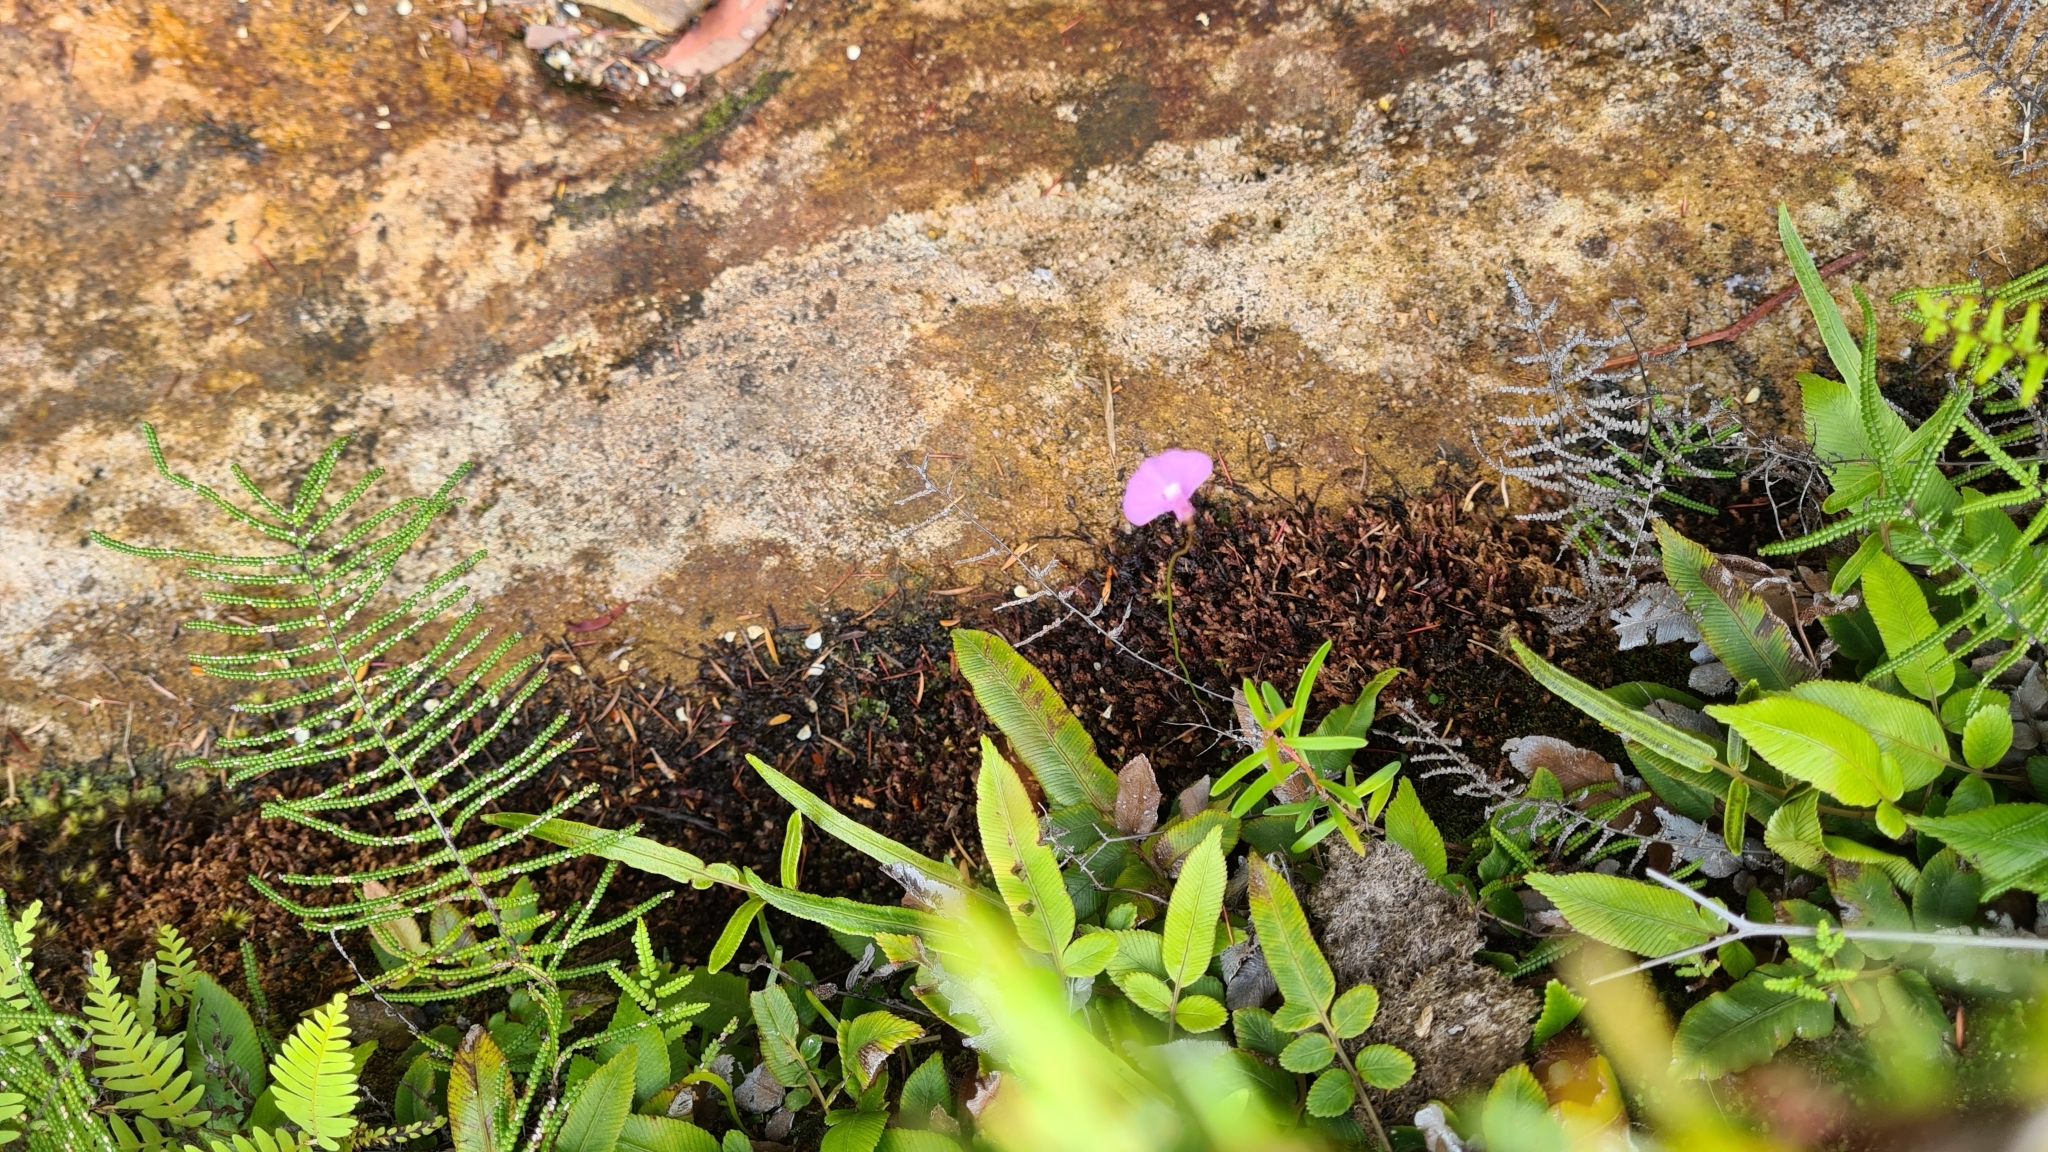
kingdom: Plantae
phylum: Tracheophyta
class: Magnoliopsida
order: Lamiales
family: Lentibulariaceae
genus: Utricularia
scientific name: Utricularia uniflora
